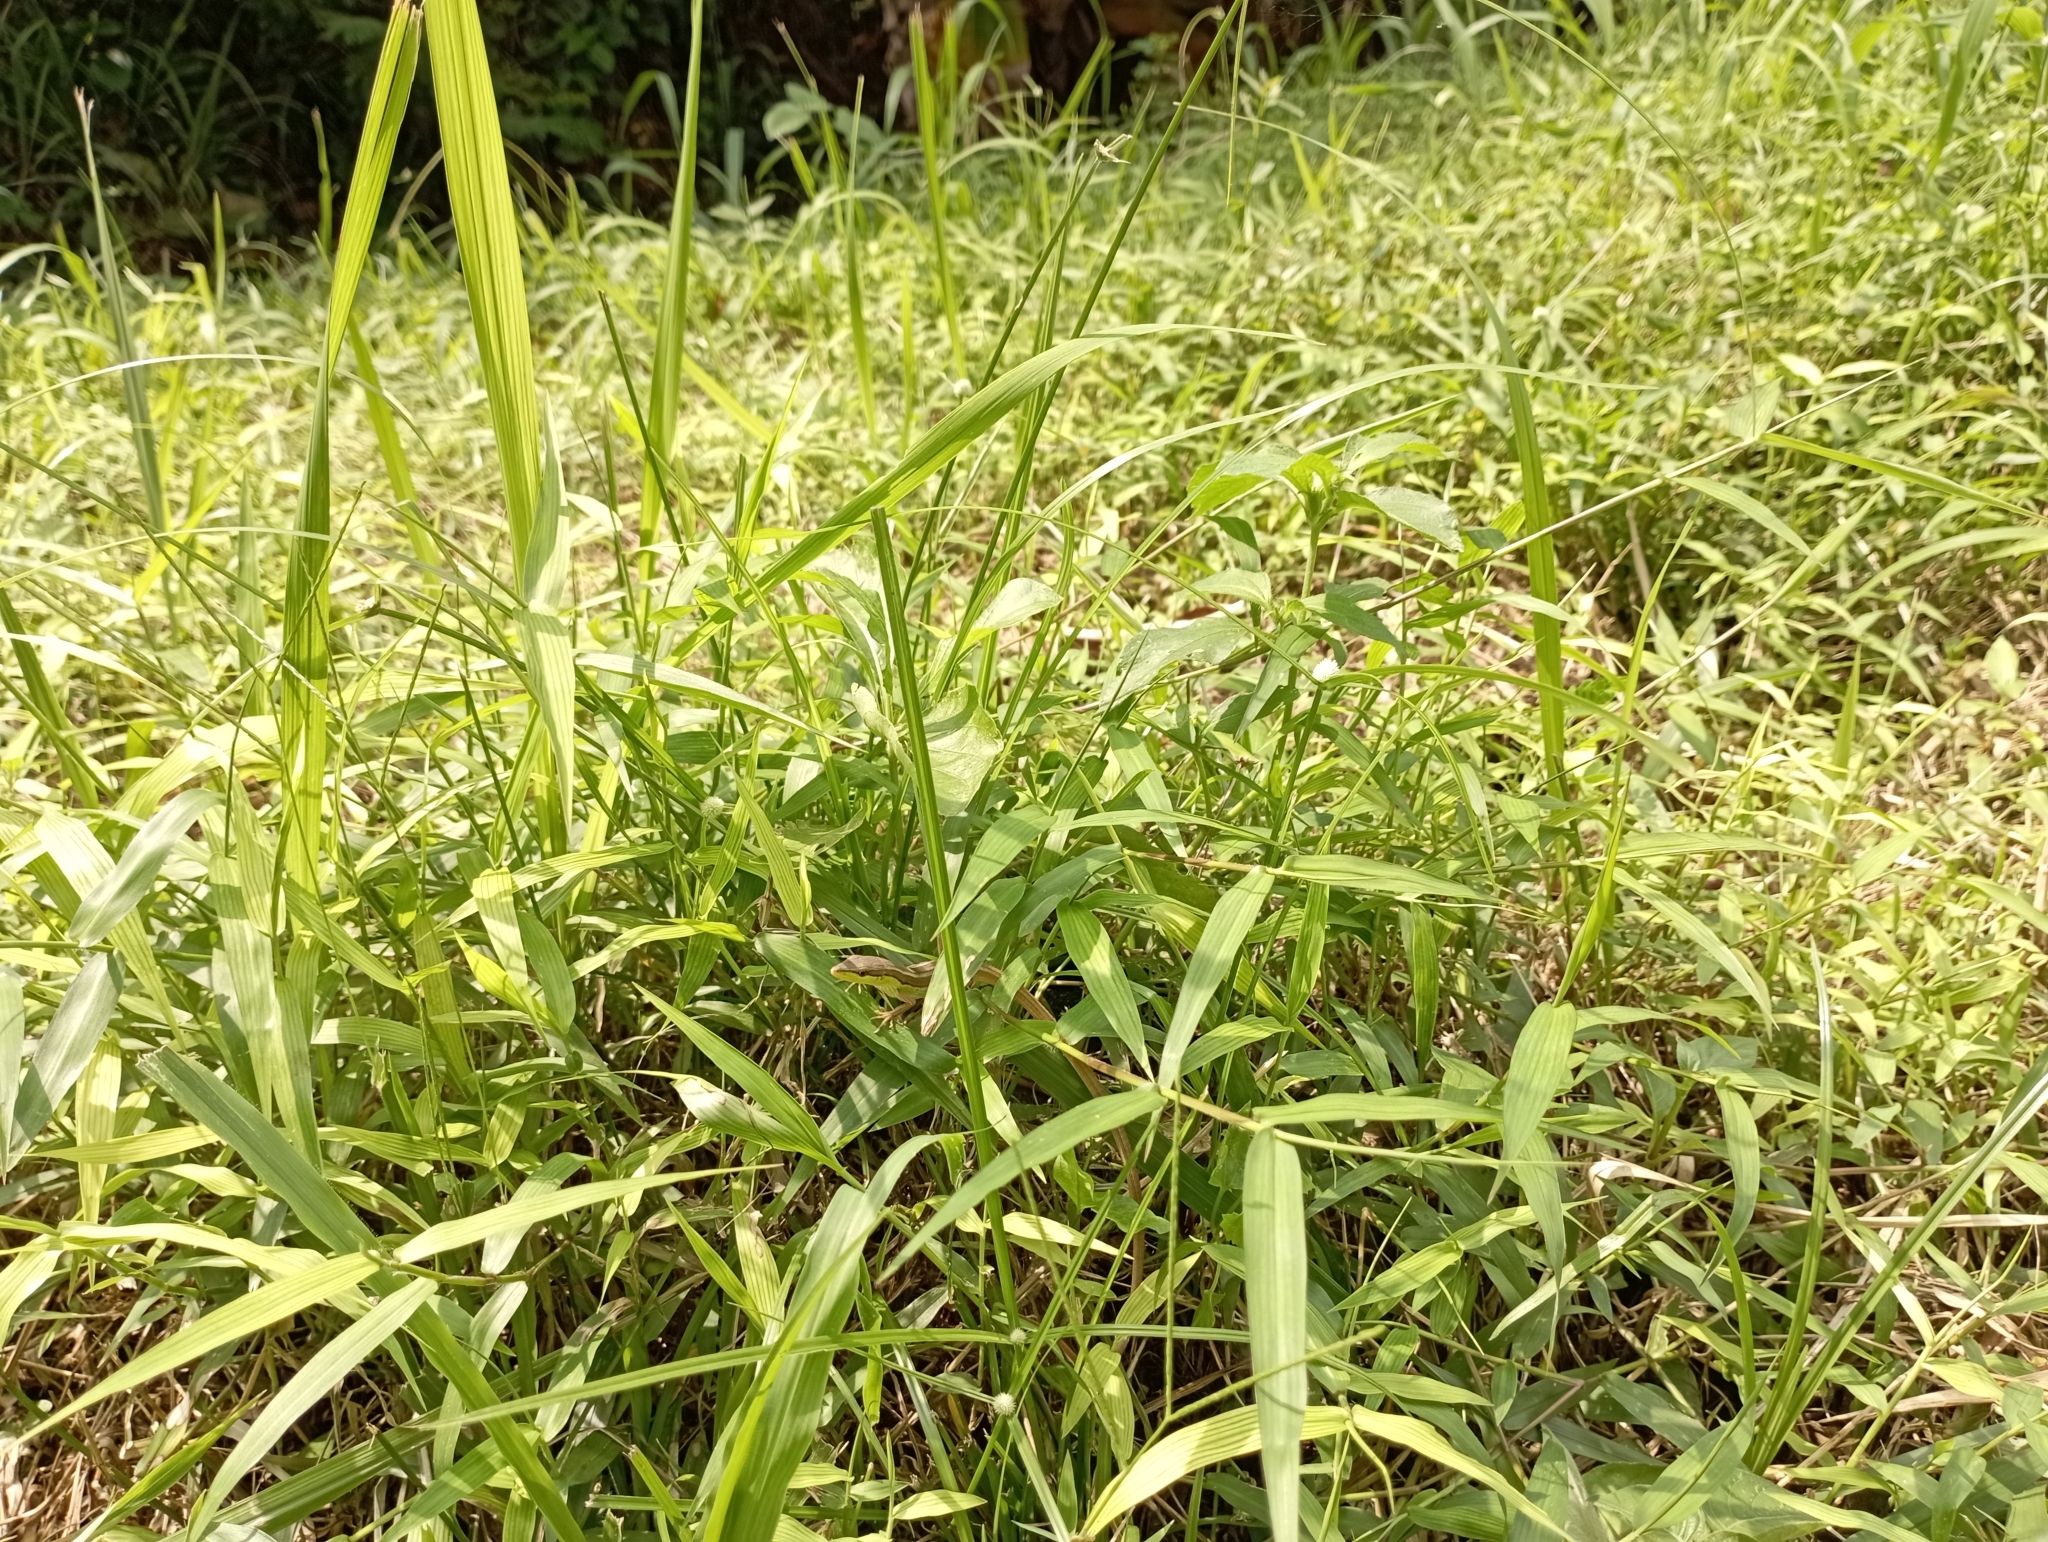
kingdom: Animalia
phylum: Chordata
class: Squamata
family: Lacertidae
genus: Takydromus
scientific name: Takydromus sexlineatus
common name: Asian grass lizard
